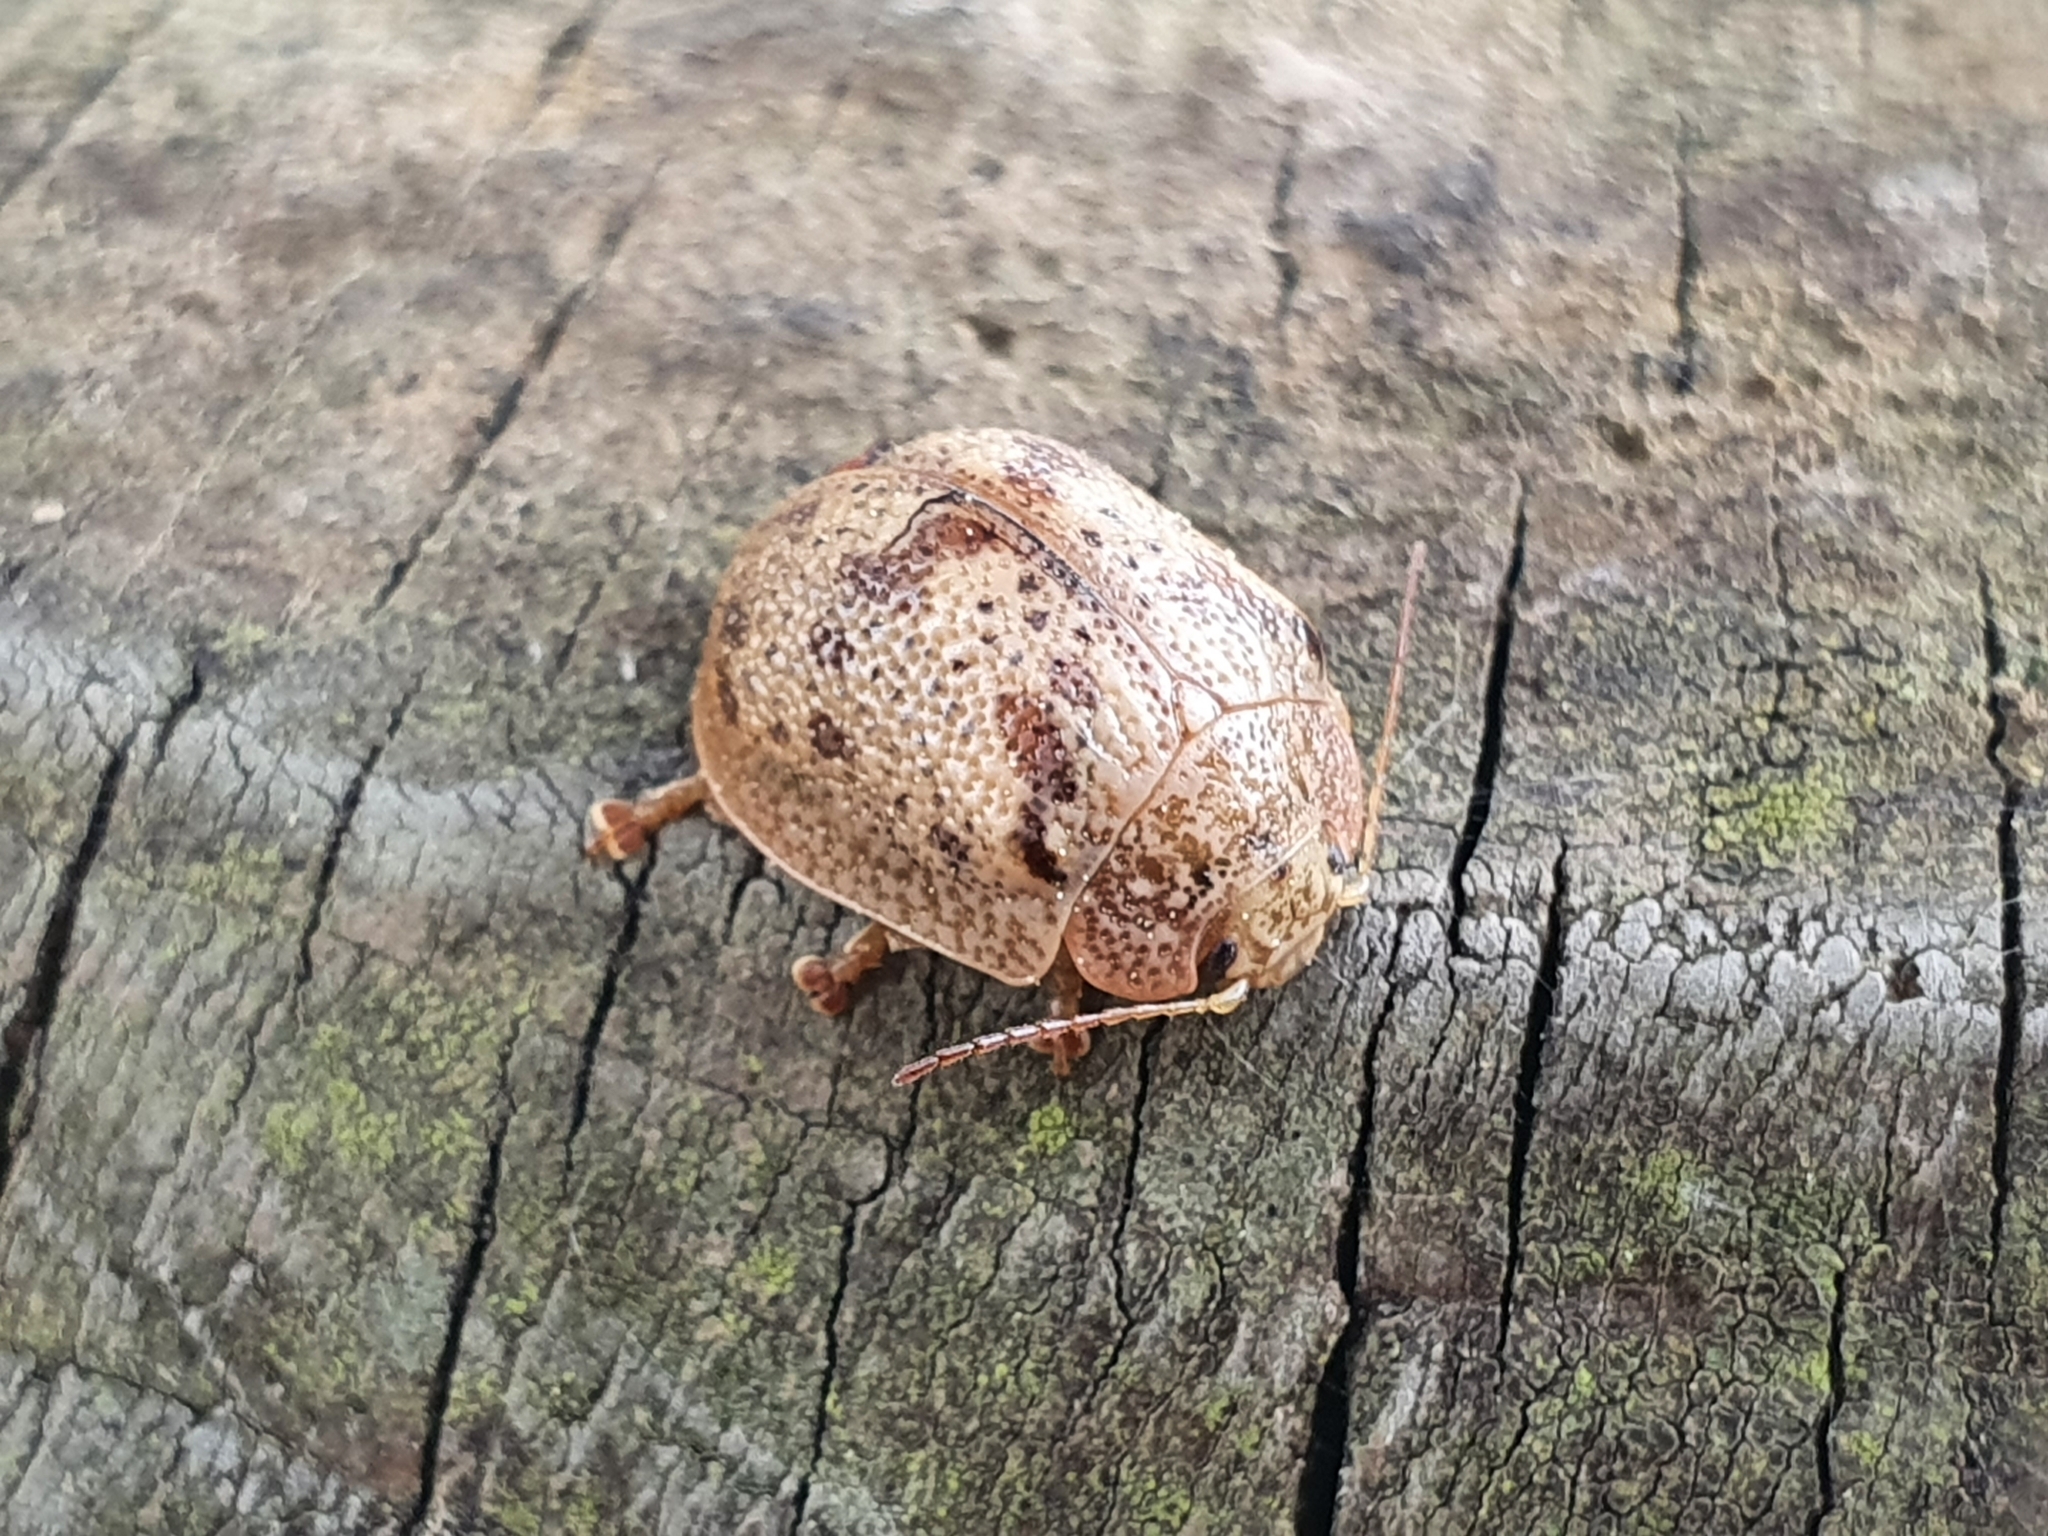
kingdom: Animalia
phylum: Arthropoda
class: Insecta
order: Coleoptera
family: Chrysomelidae
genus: Paropsis
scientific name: Paropsis charybdis
